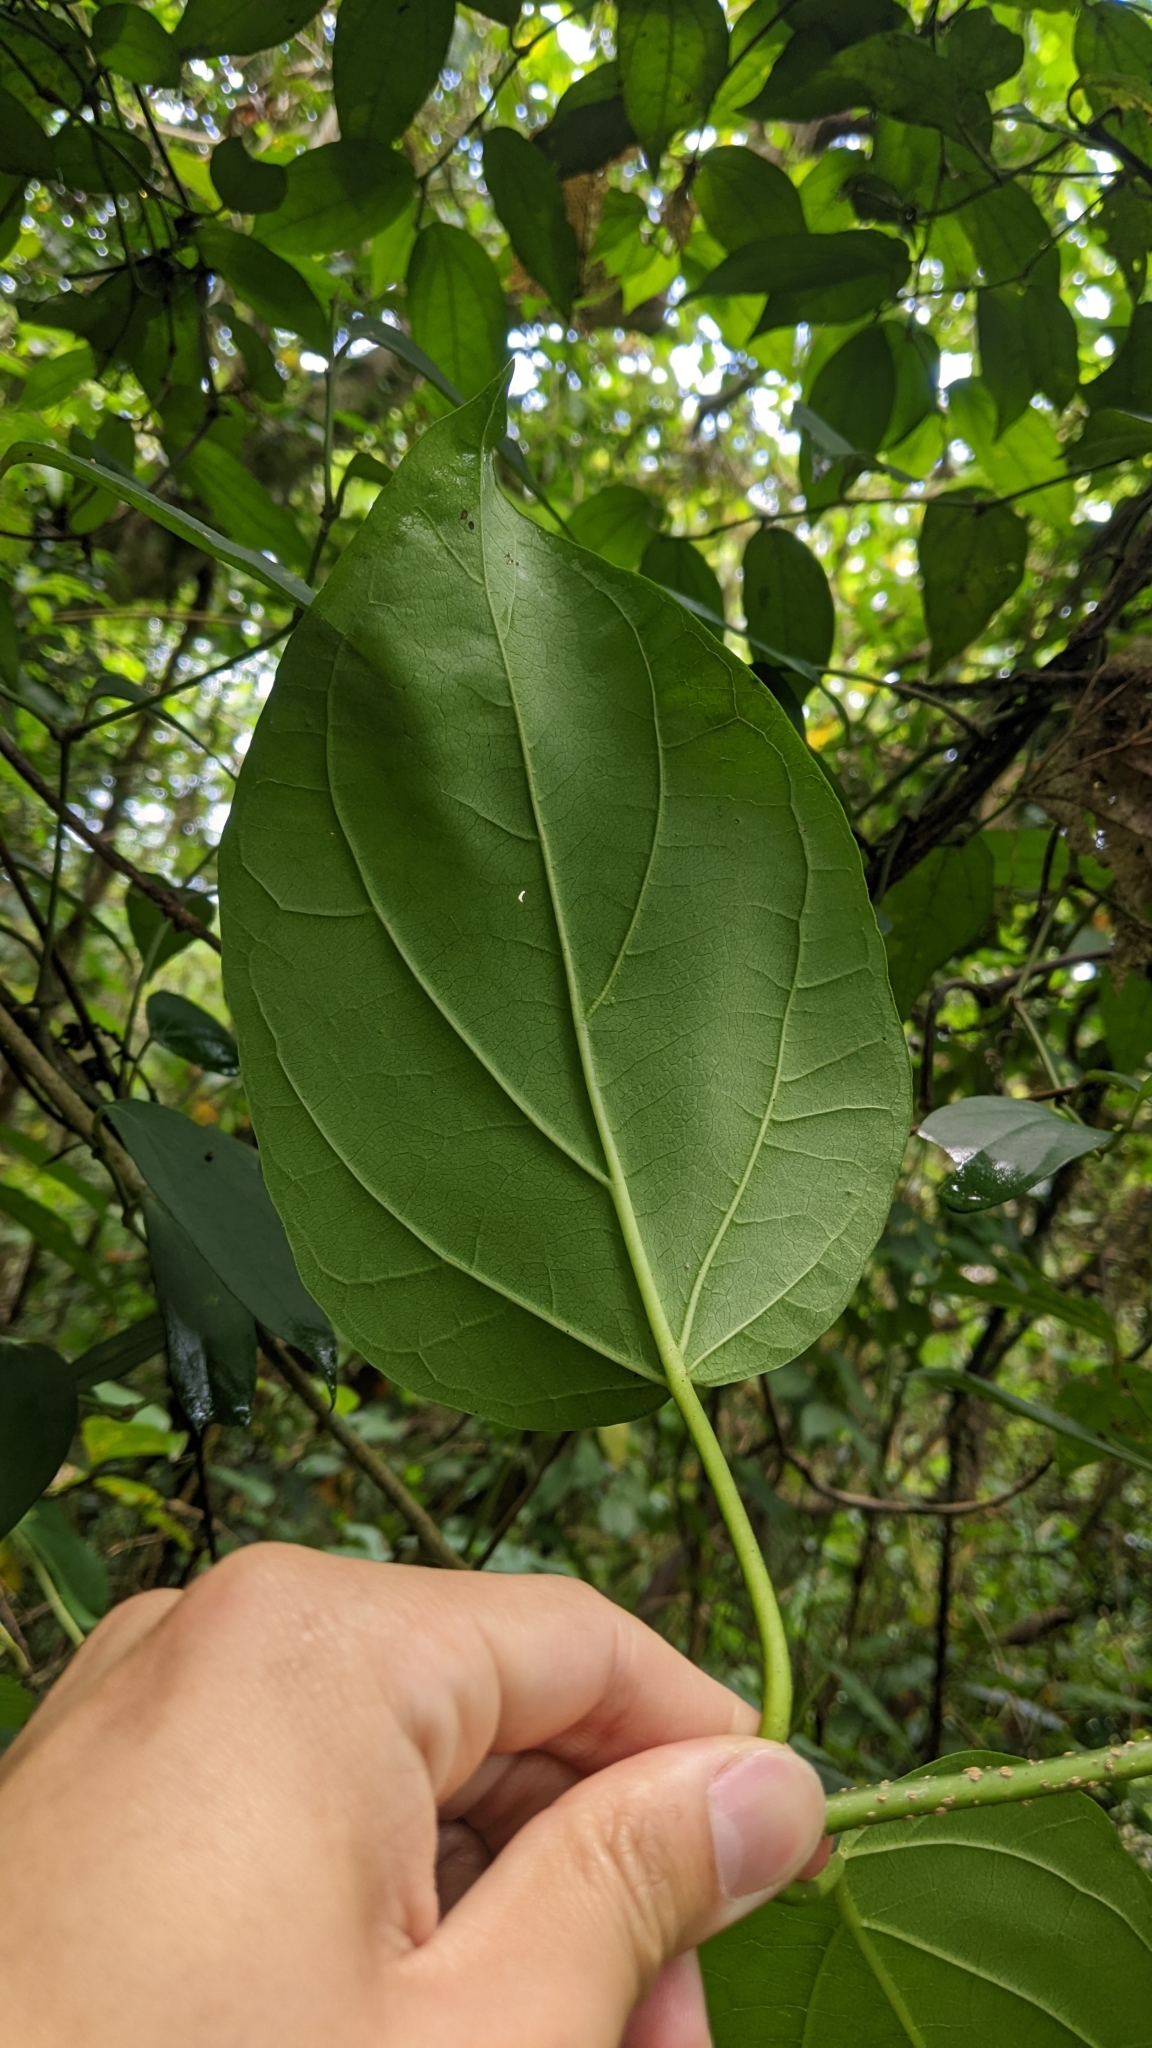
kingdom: Plantae
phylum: Tracheophyta
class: Magnoliopsida
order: Gentianales
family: Apocynaceae
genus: Stephanotis
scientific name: Stephanotis volubilis
